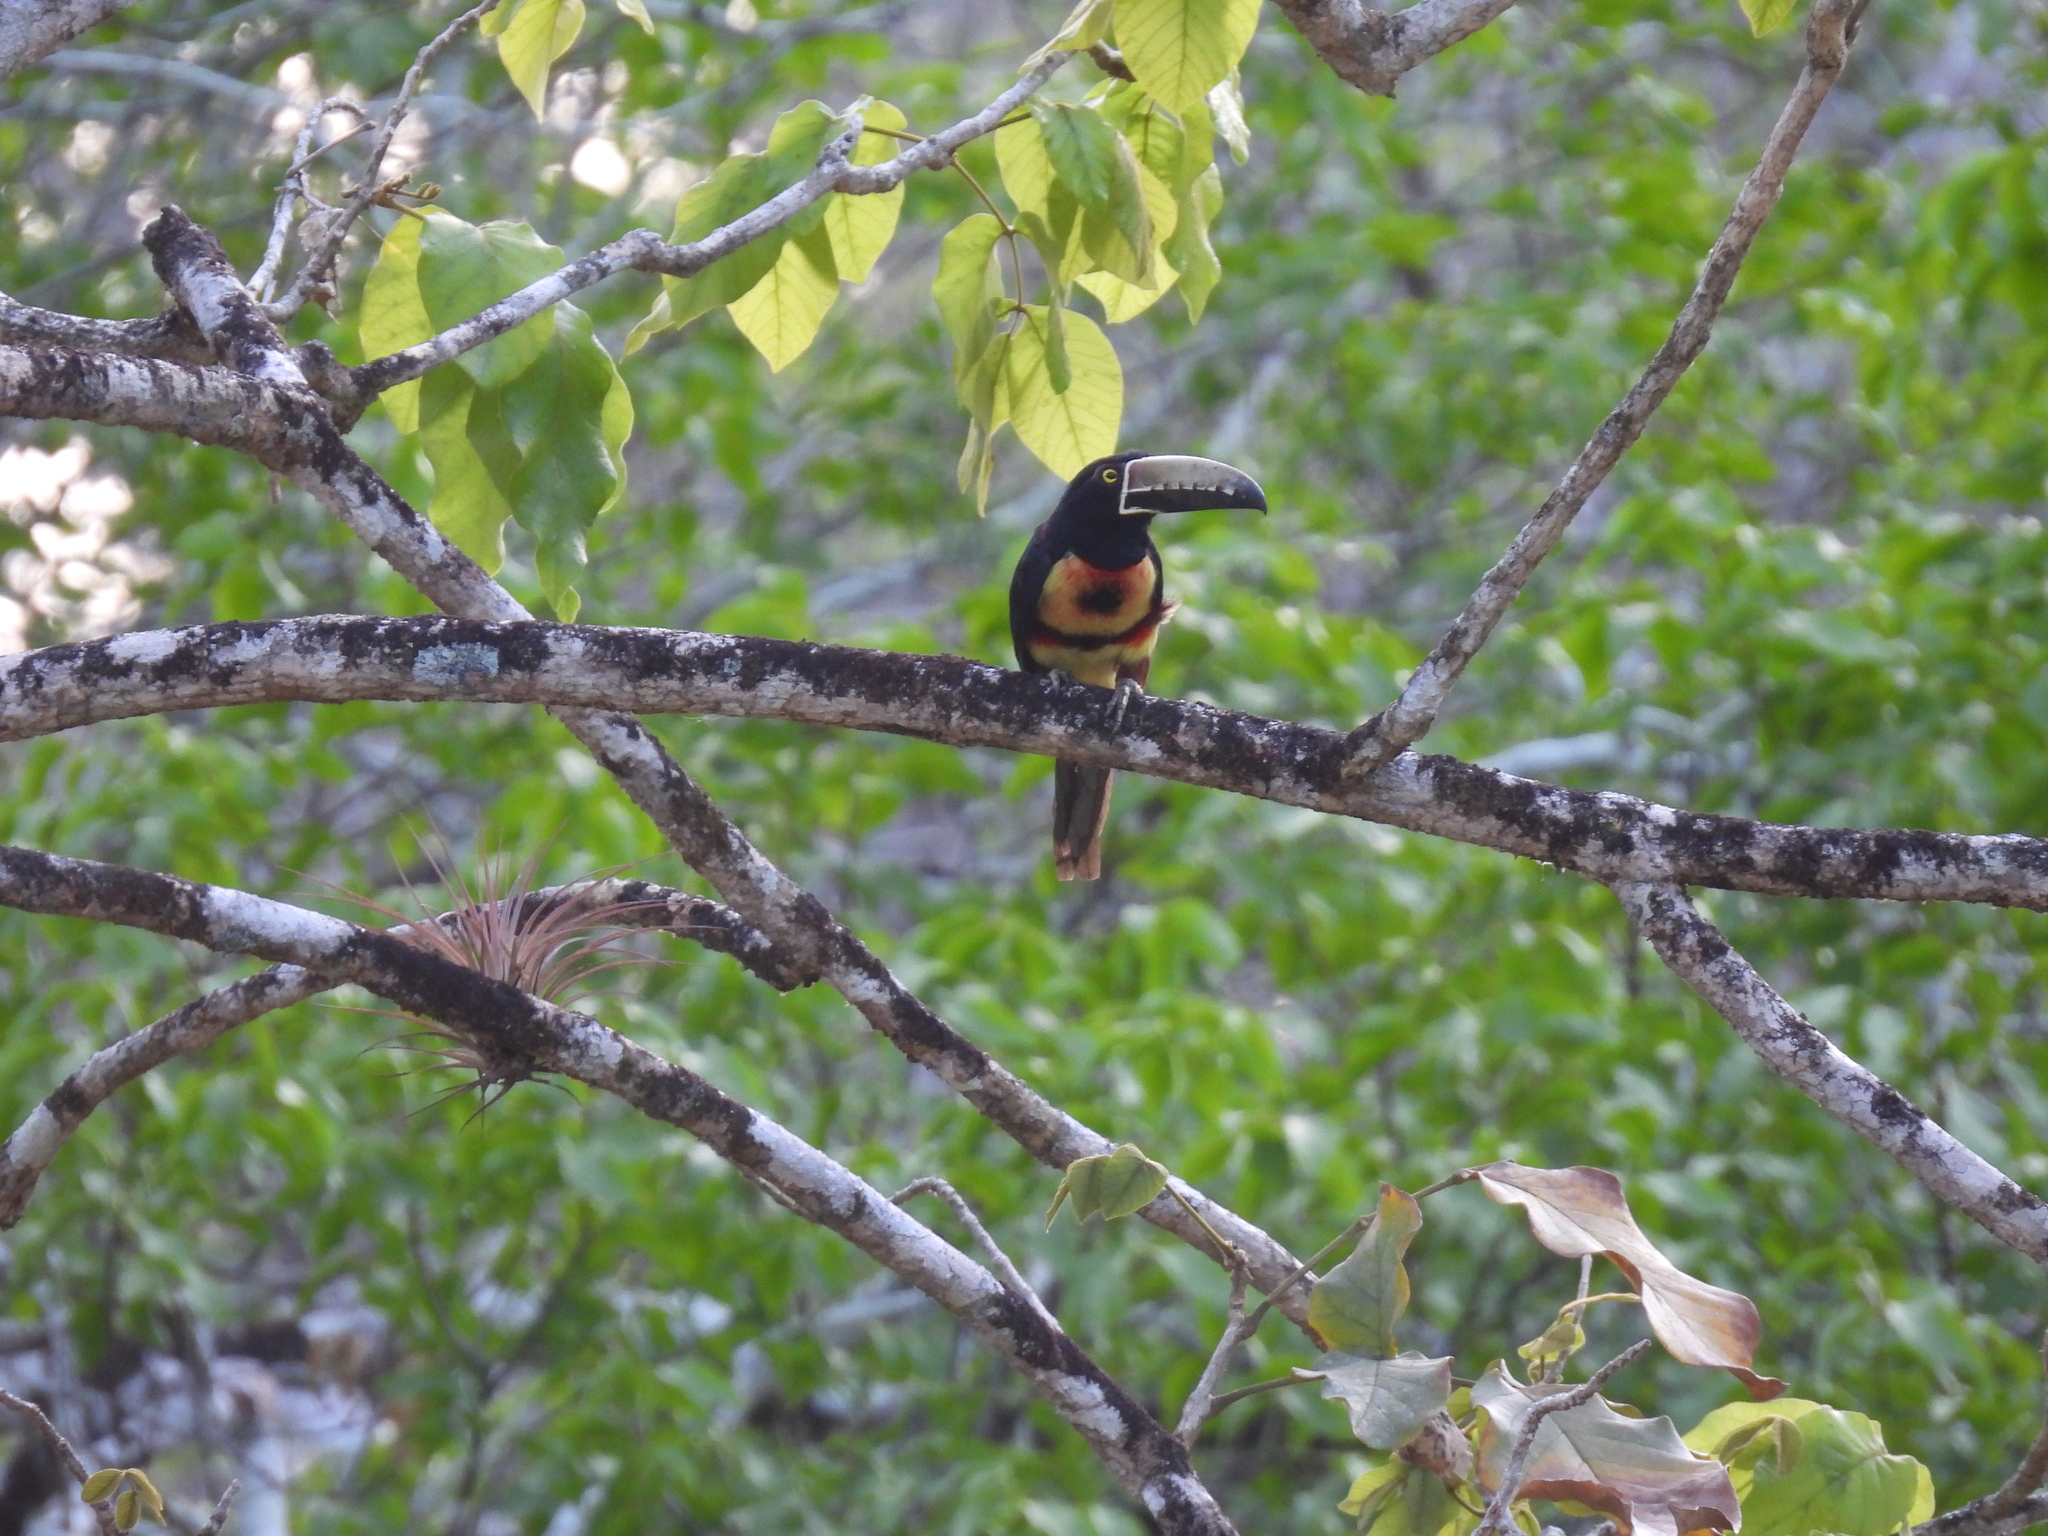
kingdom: Animalia
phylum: Chordata
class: Aves
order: Piciformes
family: Ramphastidae
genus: Pteroglossus
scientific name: Pteroglossus torquatus
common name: Collared aracari
